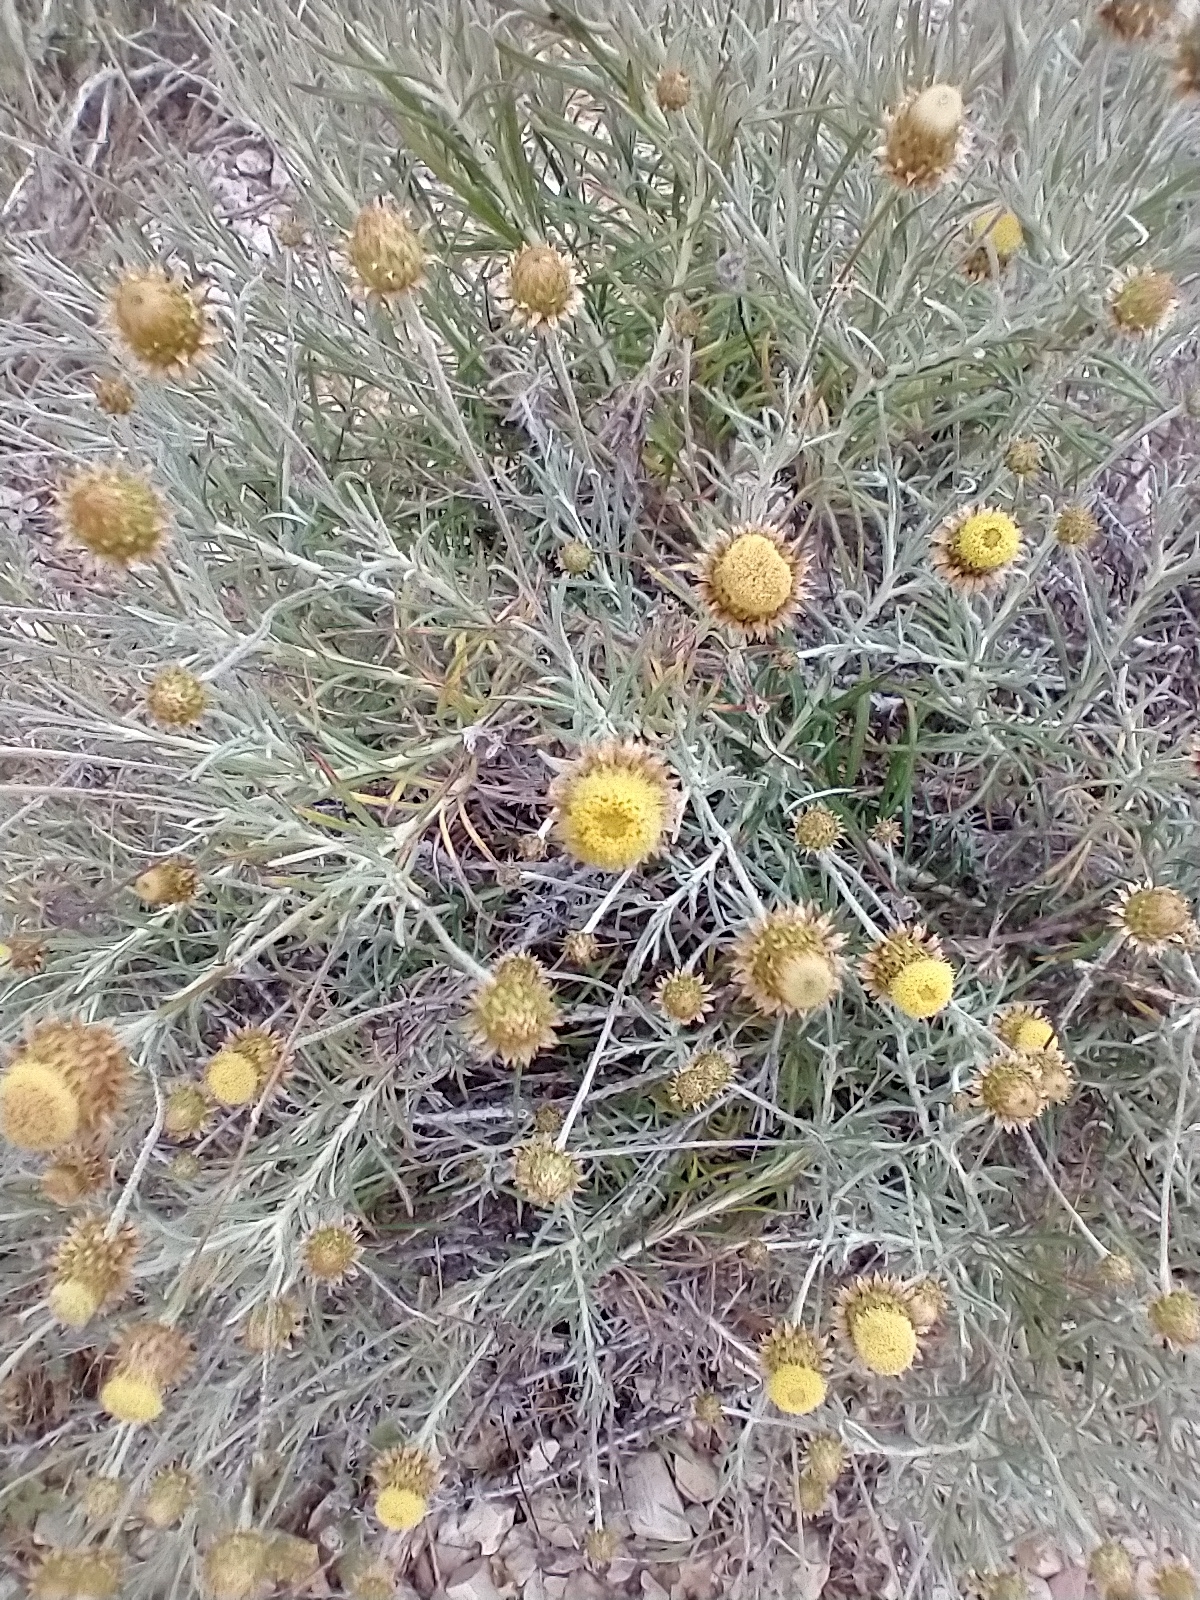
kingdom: Plantae
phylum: Tracheophyta
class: Magnoliopsida
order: Asterales
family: Asteraceae
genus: Phagnalon
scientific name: Phagnalon saxatile
